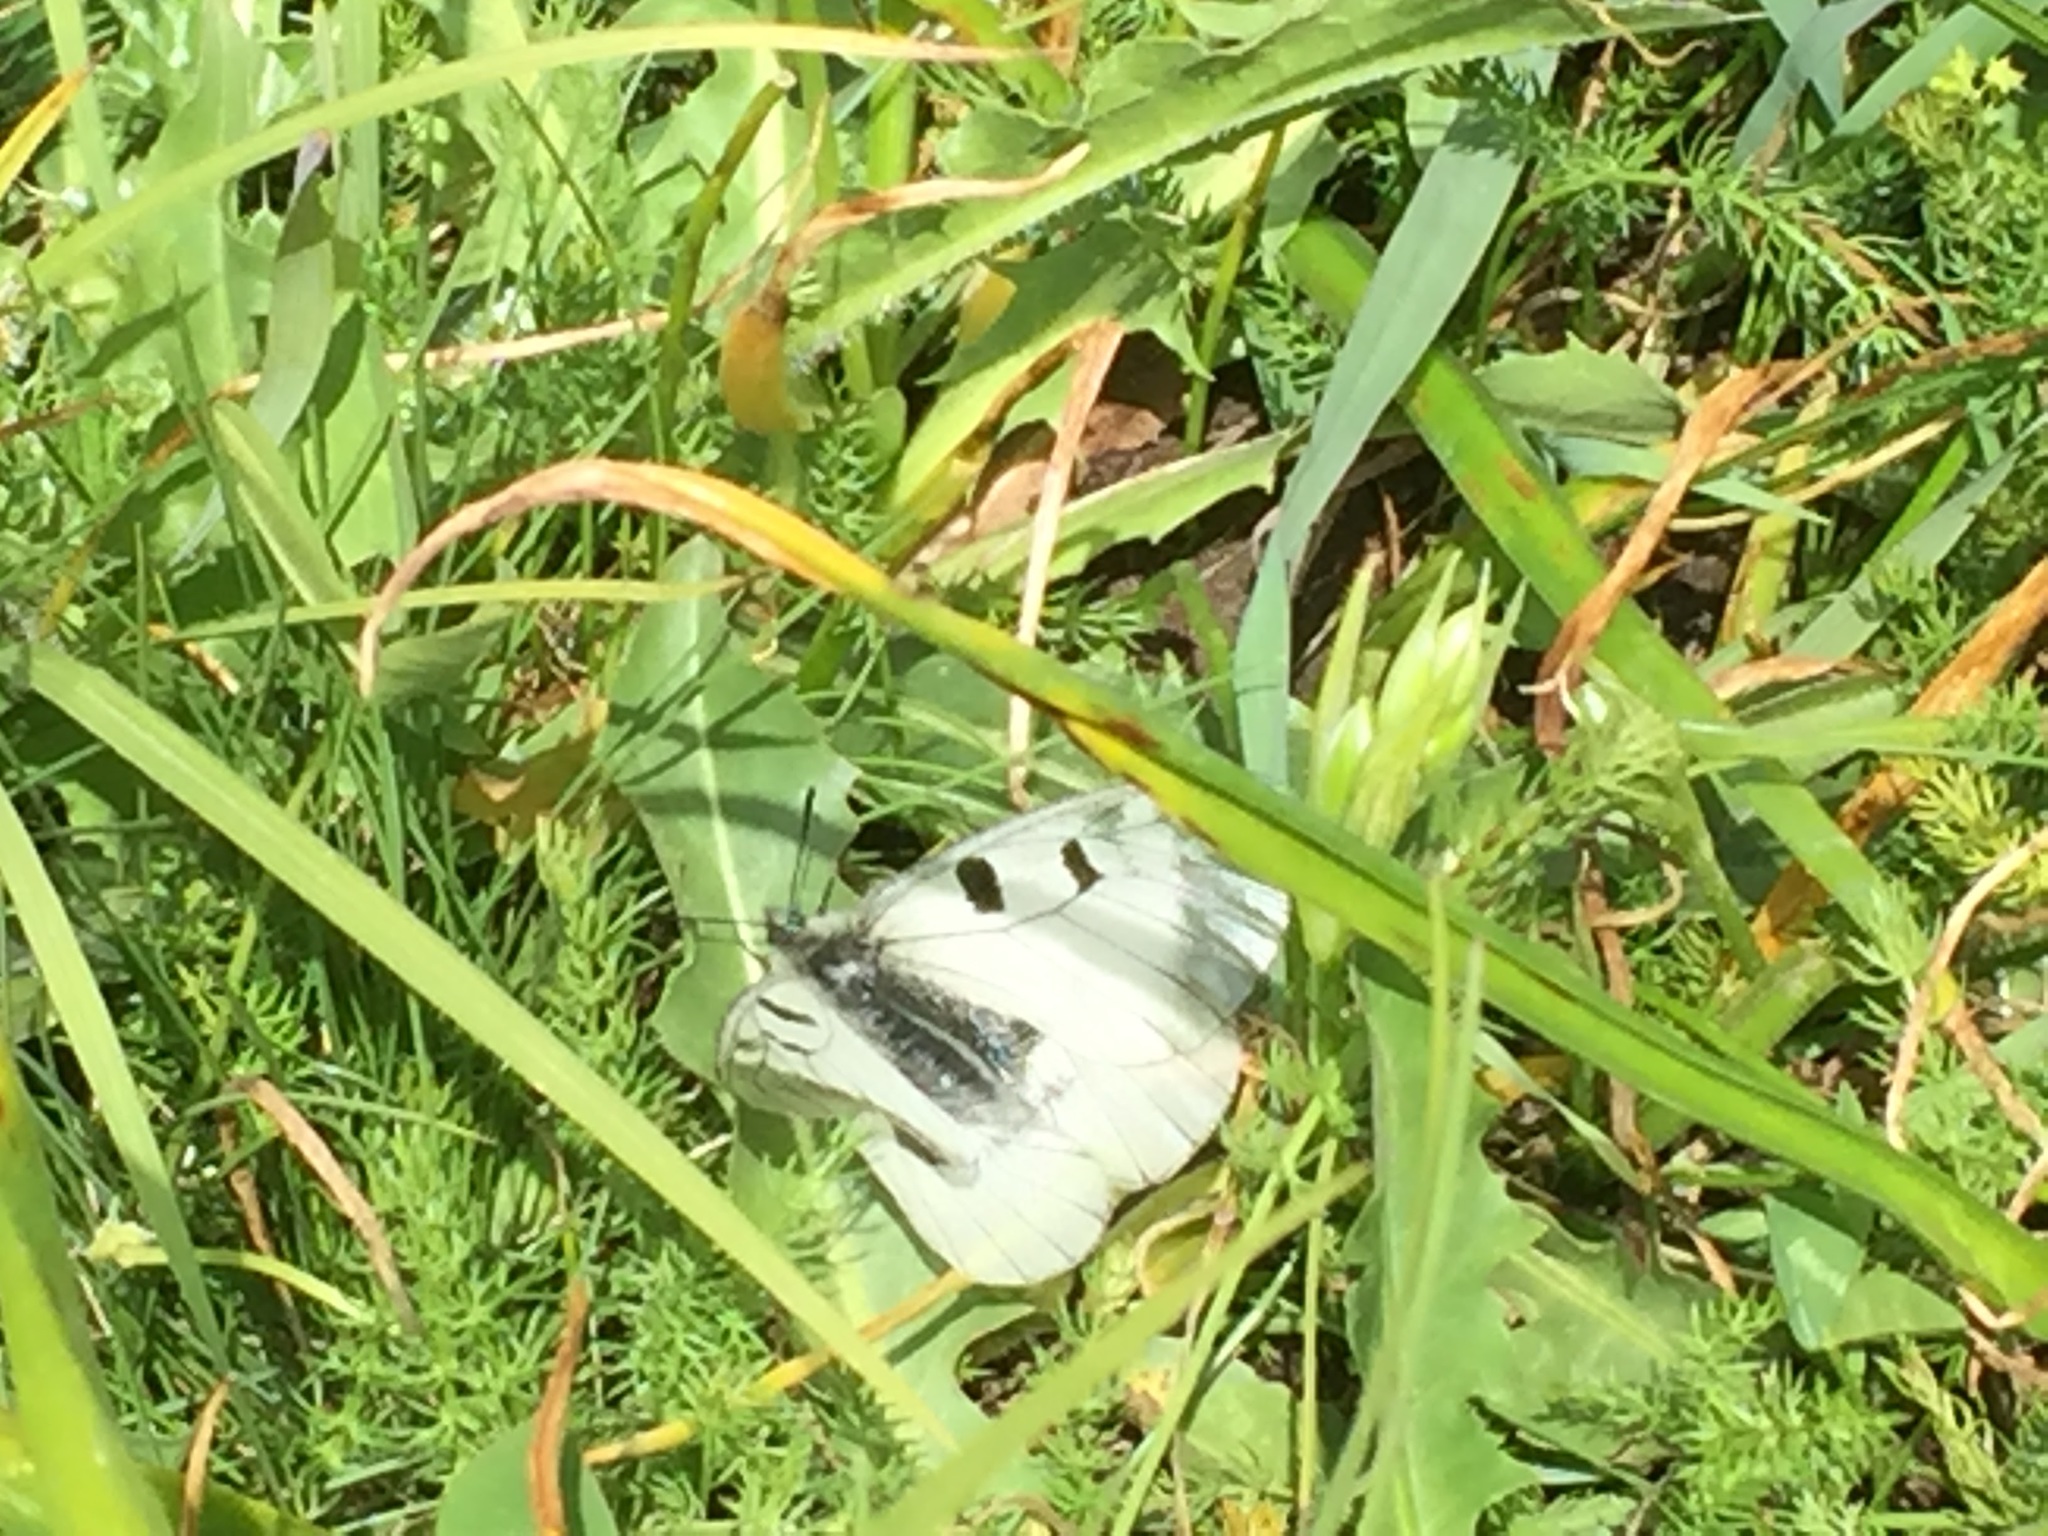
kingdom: Animalia
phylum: Arthropoda
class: Insecta
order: Lepidoptera
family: Papilionidae
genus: Parnassius
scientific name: Parnassius mnemosyne
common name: Clouded apollo
